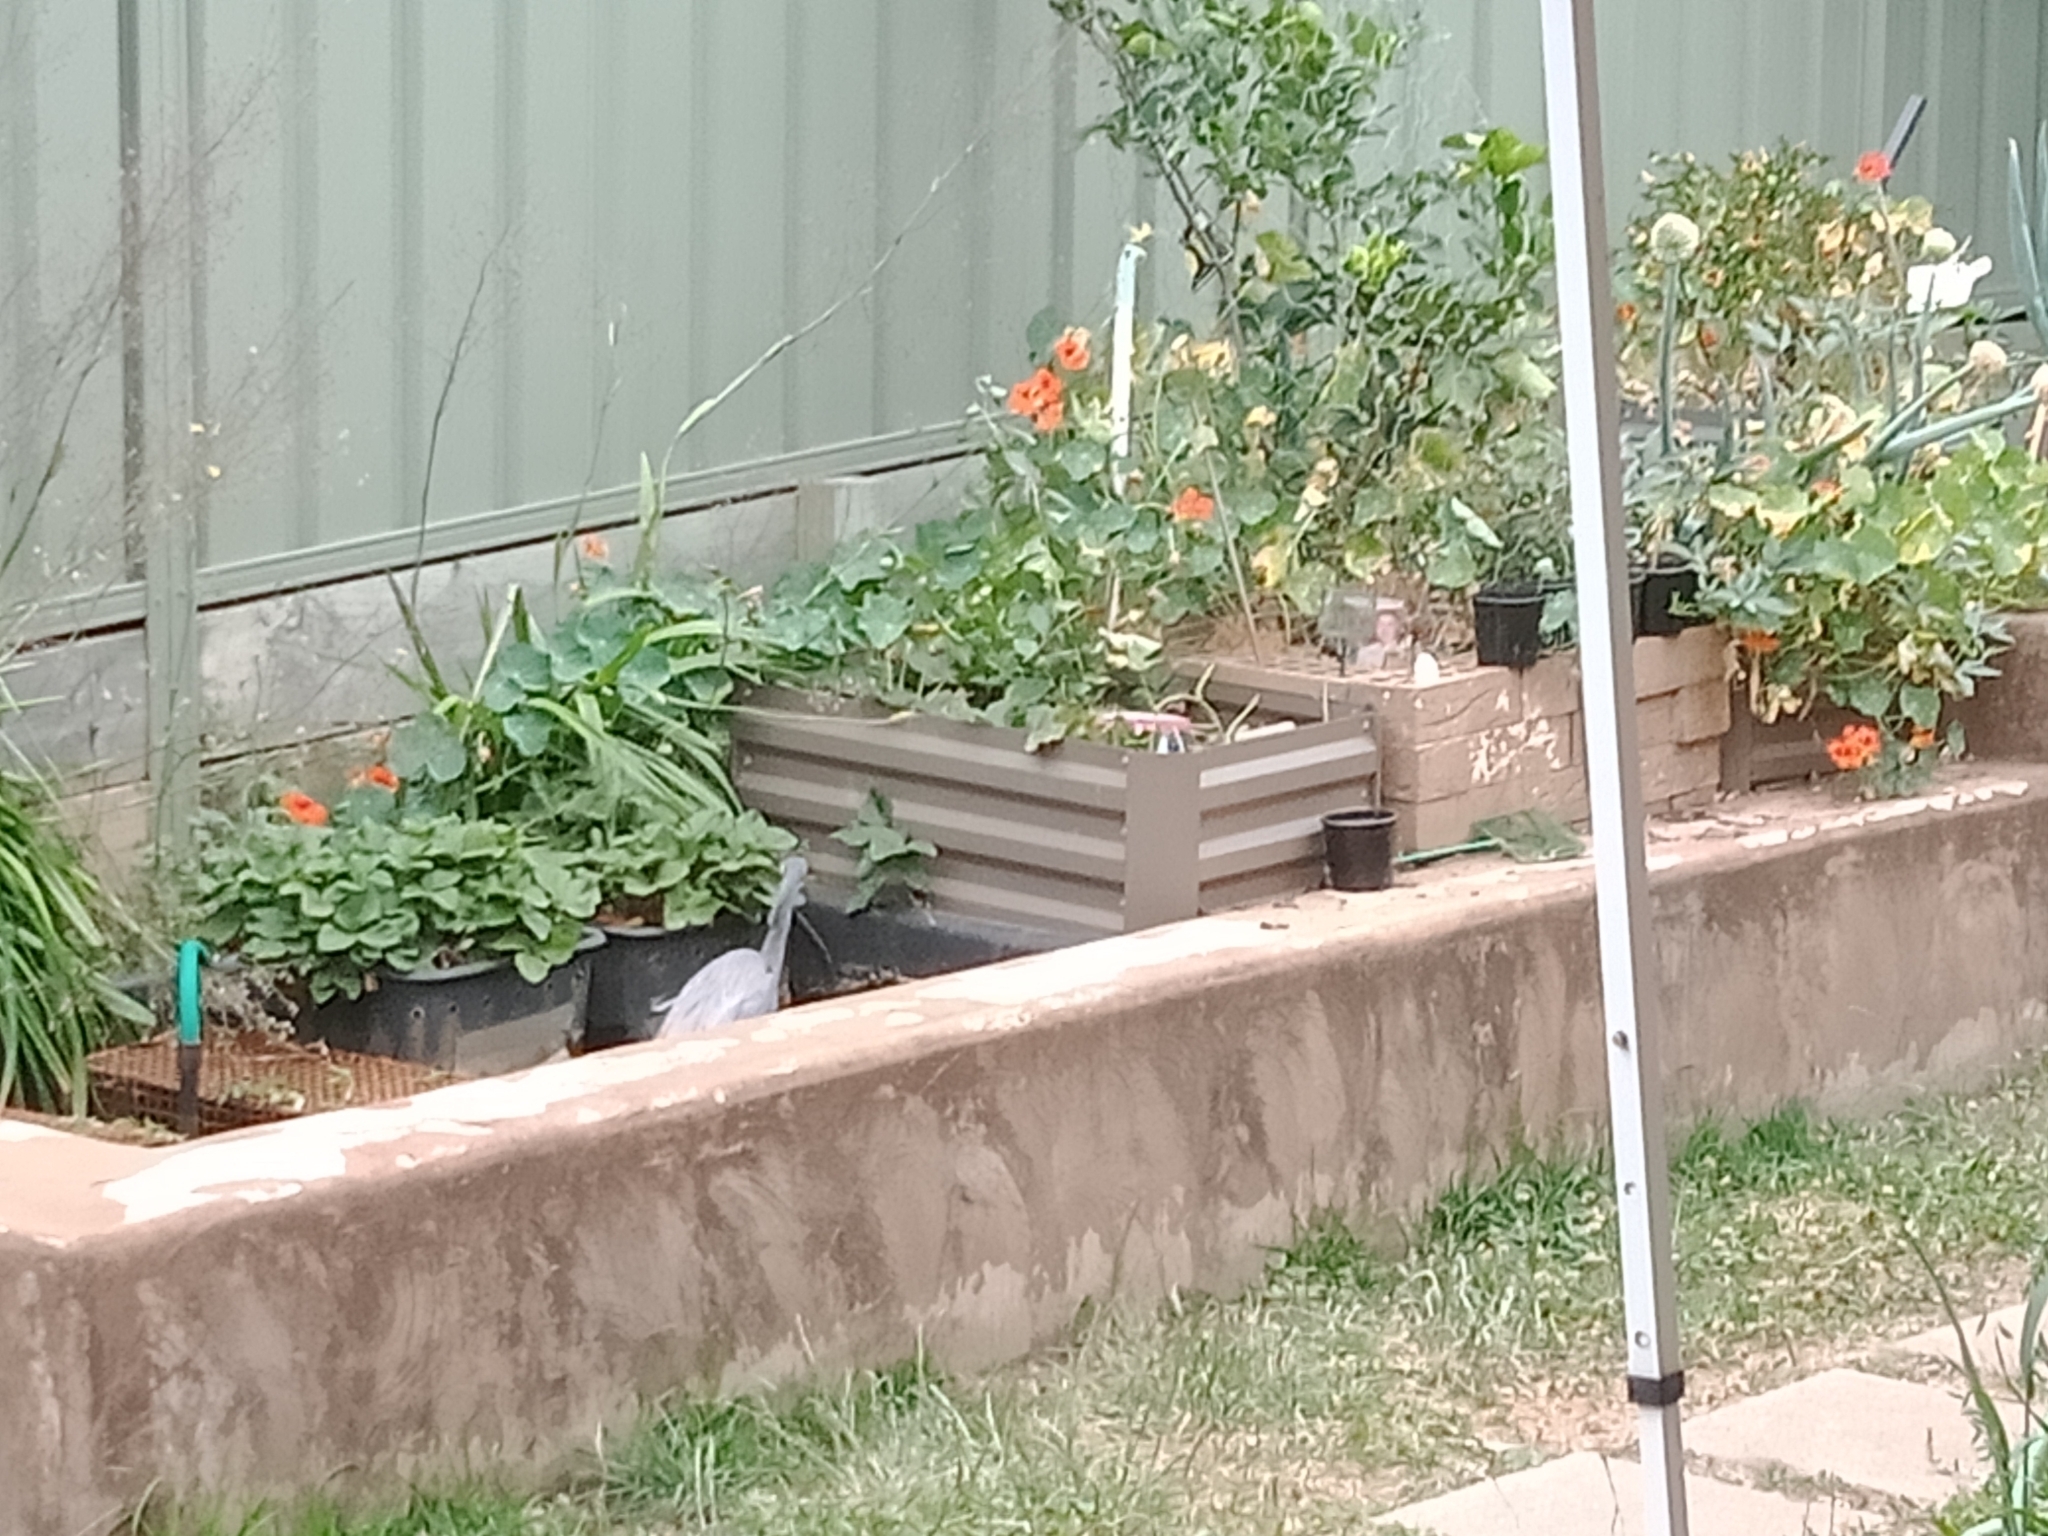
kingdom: Animalia
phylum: Chordata
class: Aves
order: Pelecaniformes
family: Ardeidae
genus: Egretta
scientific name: Egretta novaehollandiae
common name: White-faced heron
